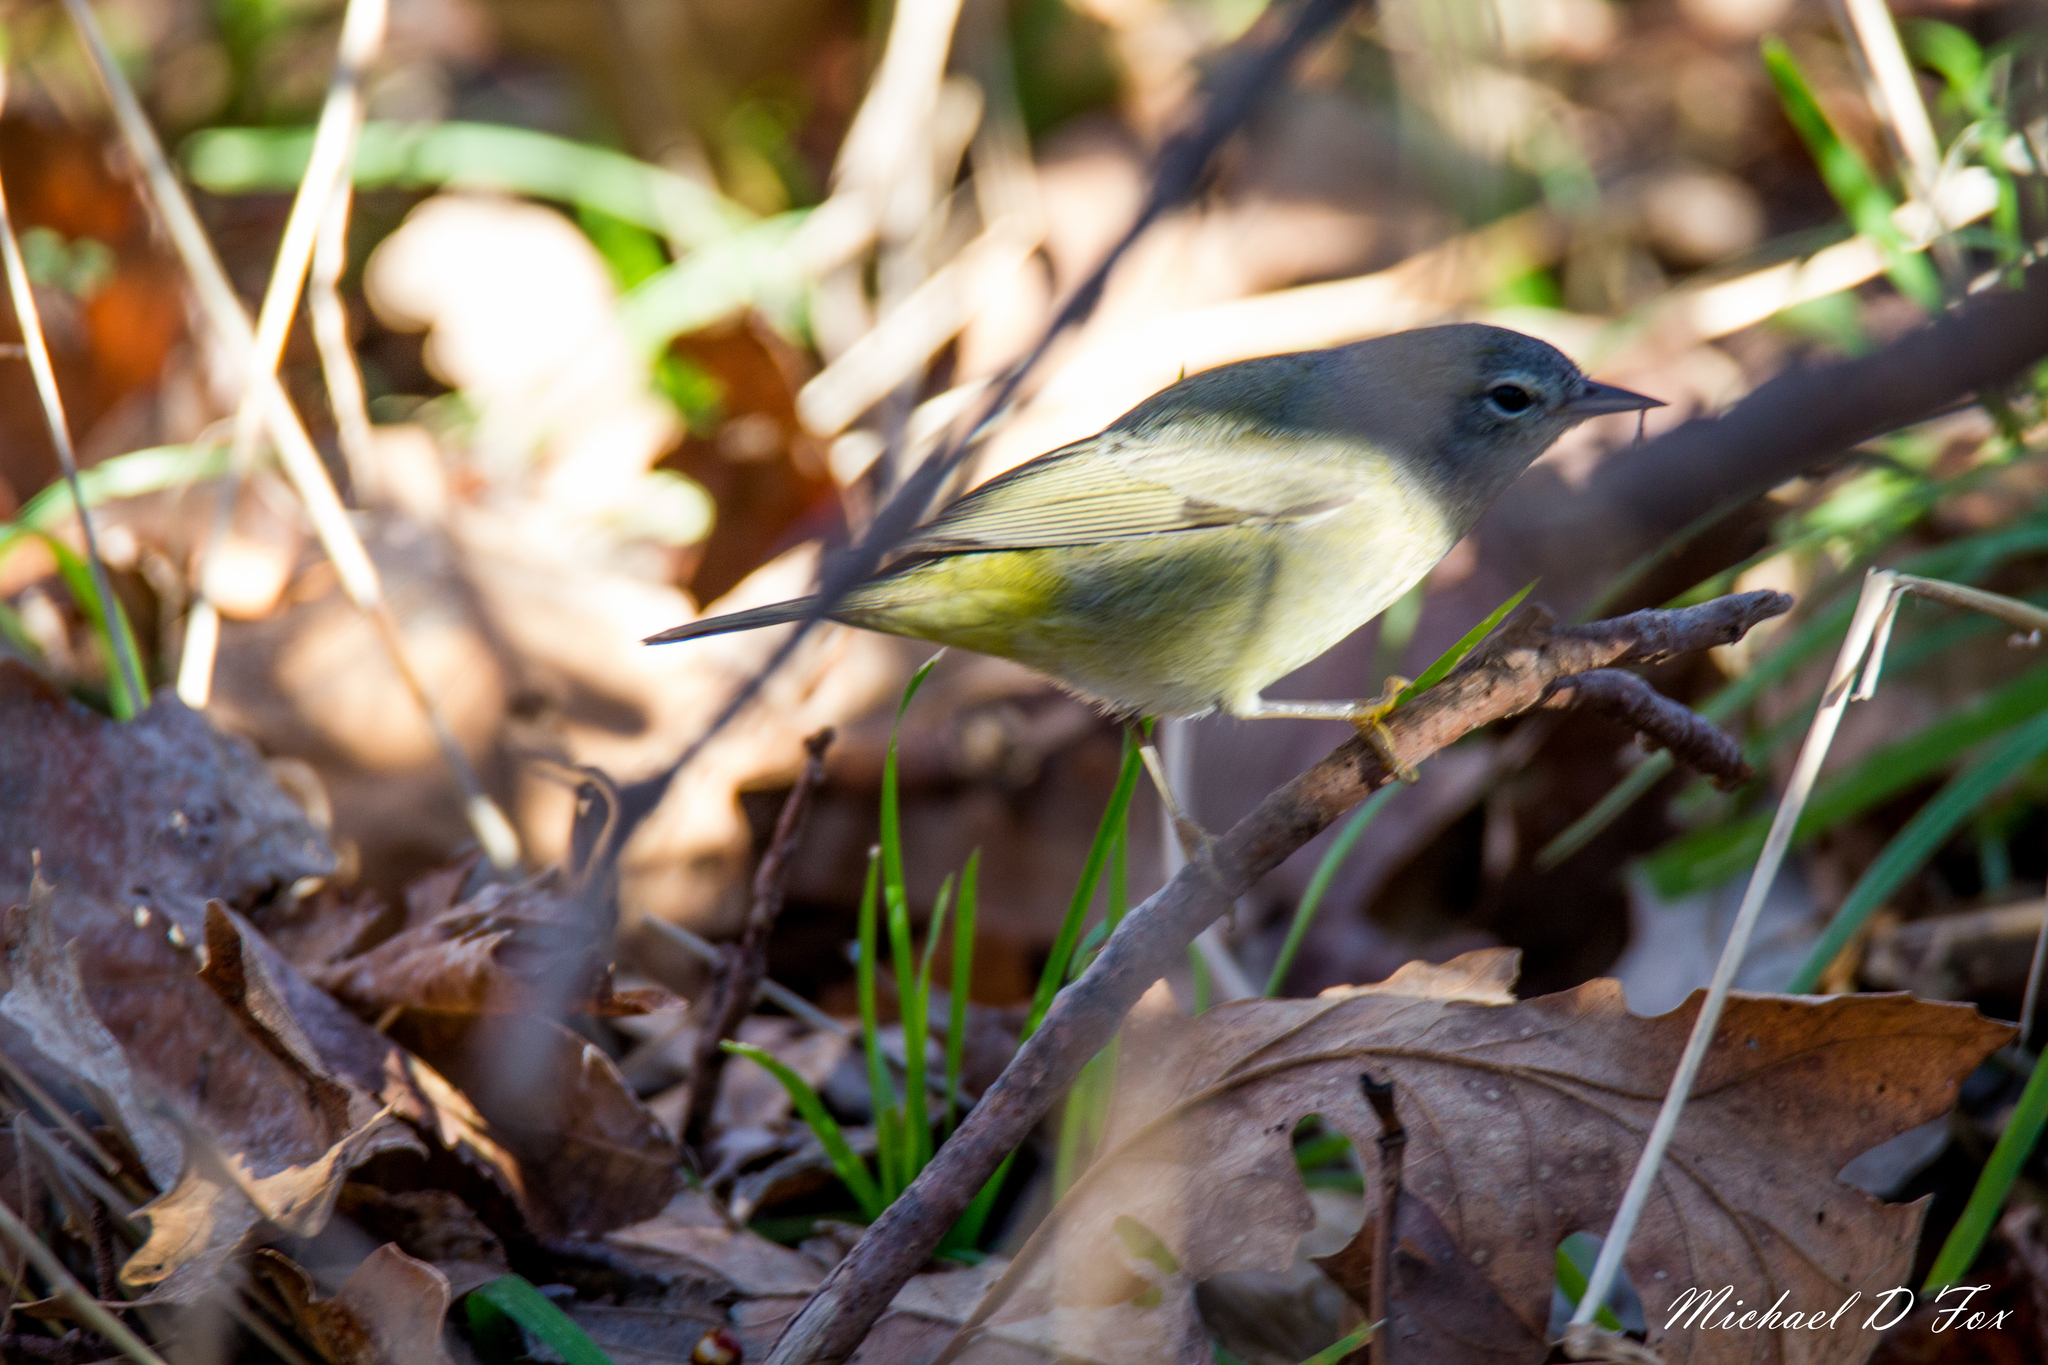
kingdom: Animalia
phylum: Chordata
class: Aves
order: Passeriformes
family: Parulidae
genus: Leiothlypis
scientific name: Leiothlypis celata
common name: Orange-crowned warbler
